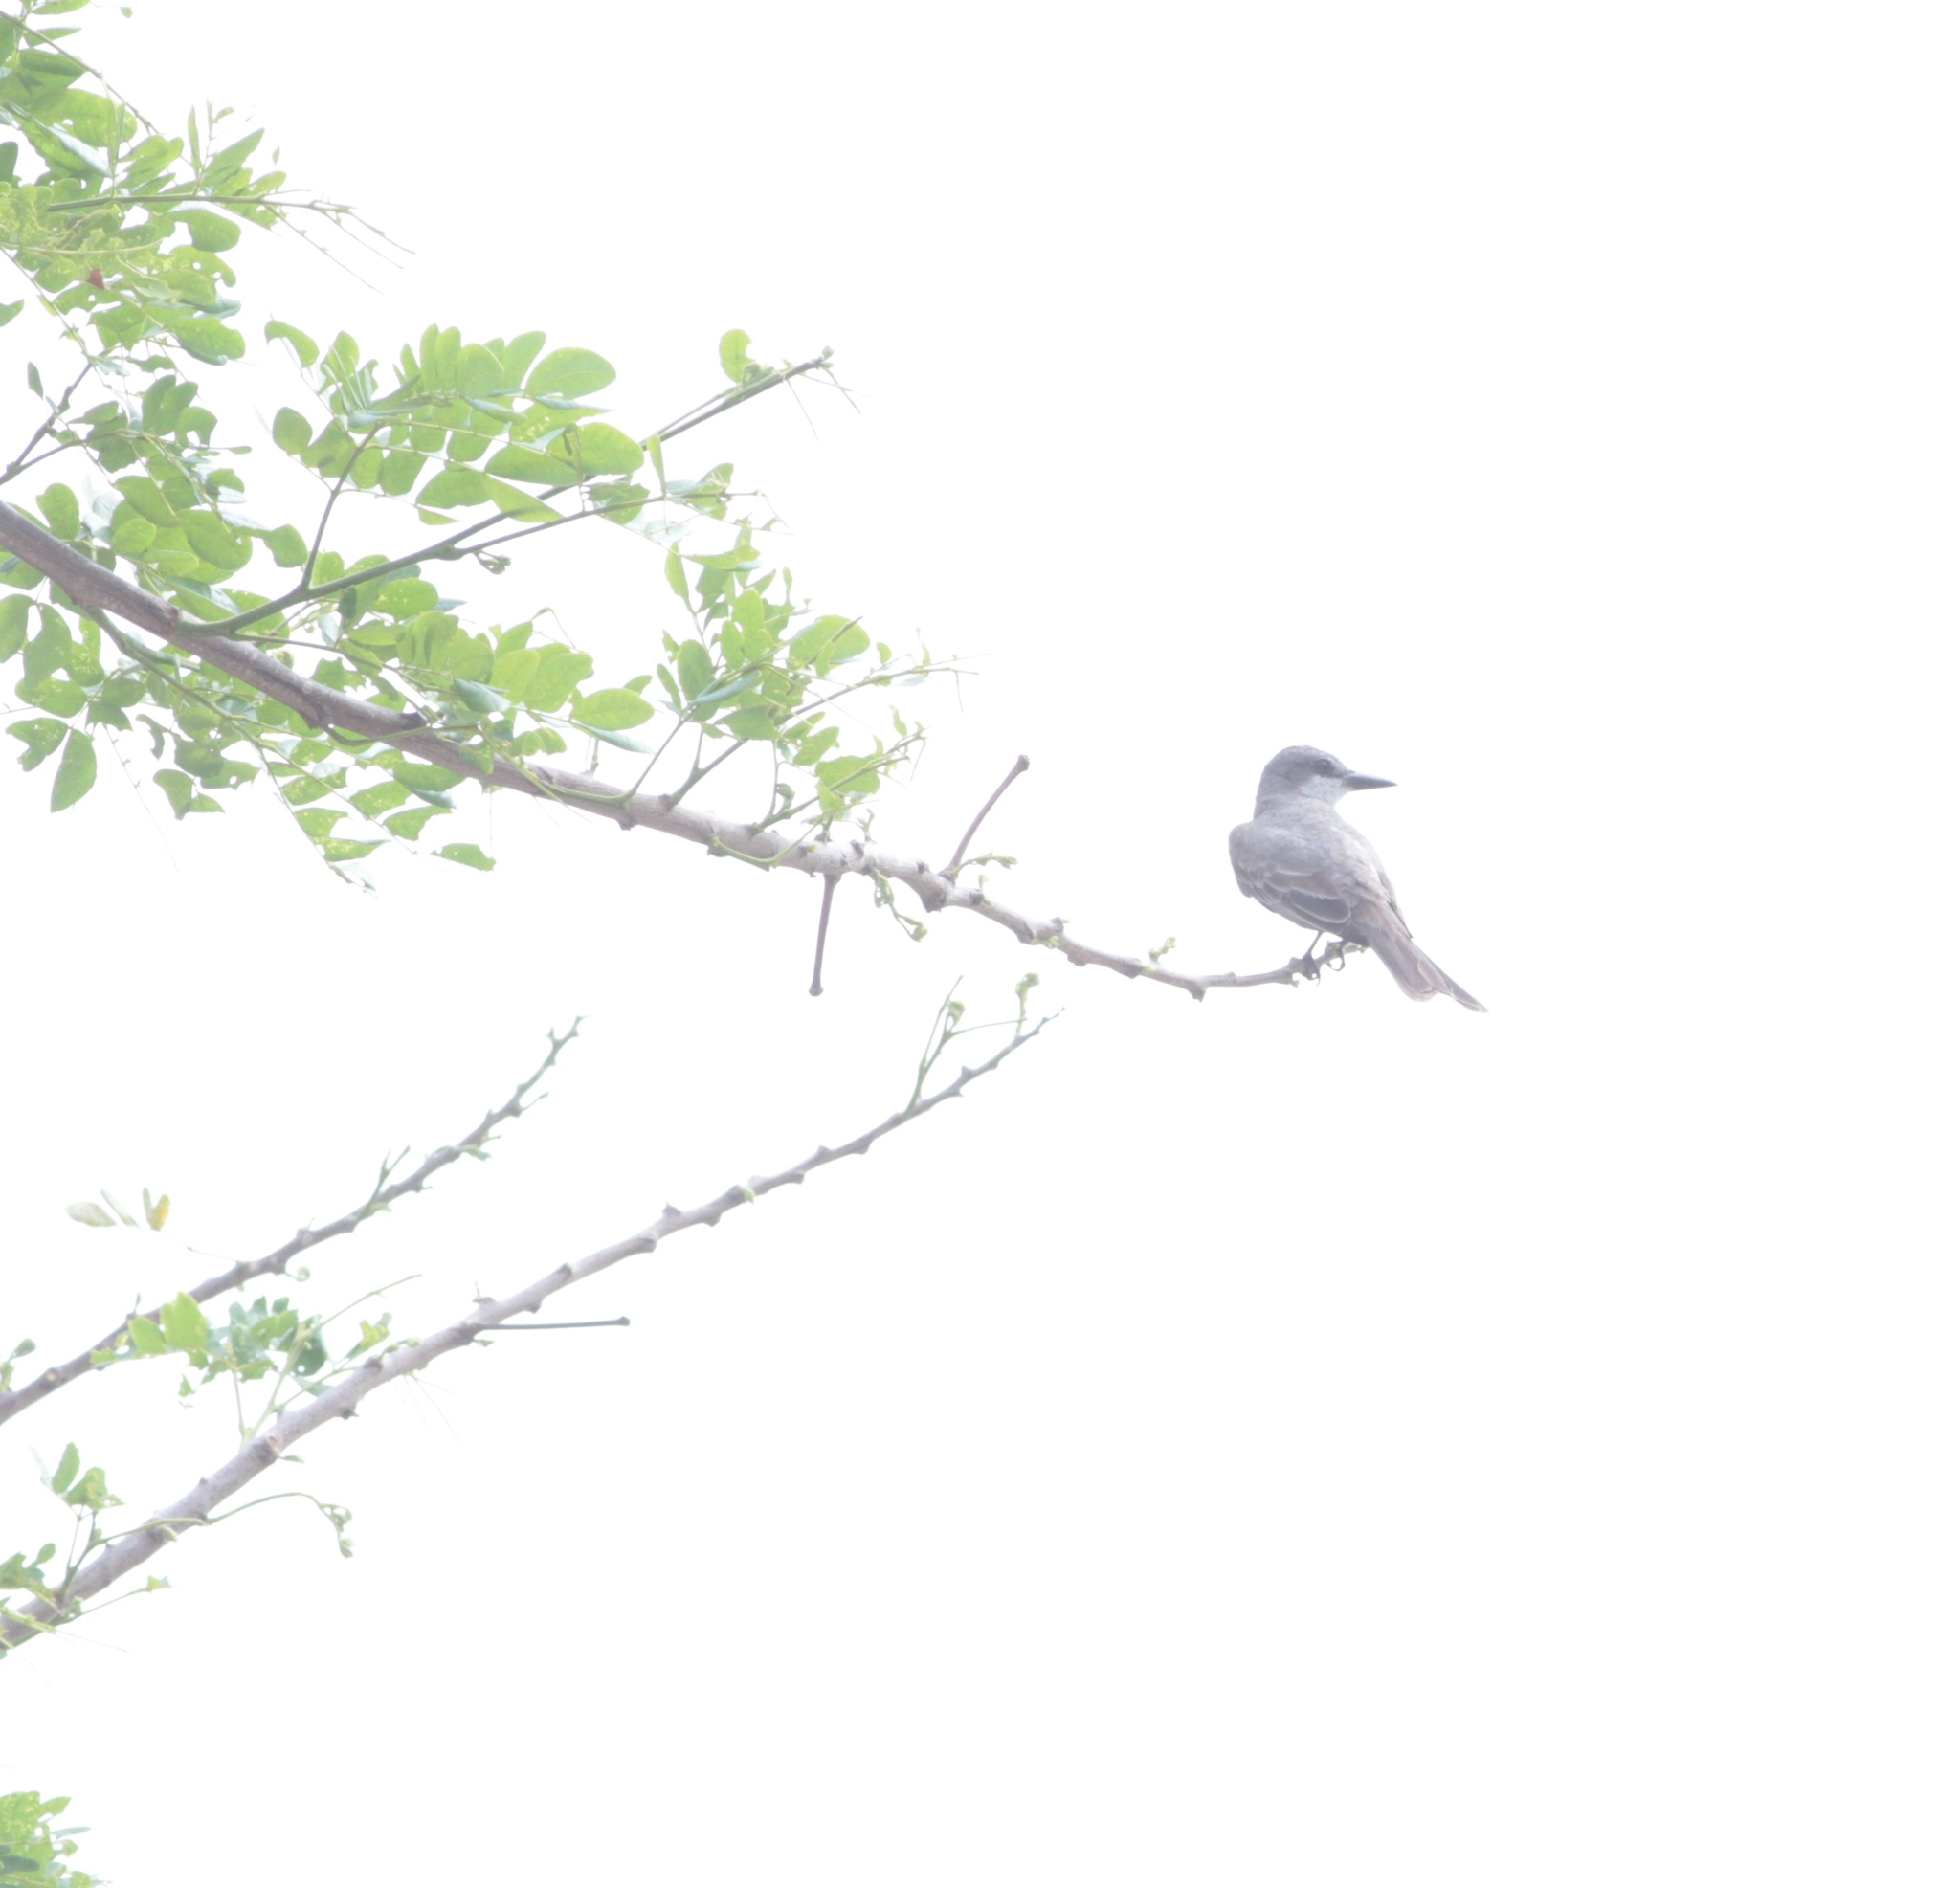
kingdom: Animalia
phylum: Chordata
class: Aves
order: Passeriformes
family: Tyrannidae
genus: Tyrannus
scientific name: Tyrannus dominicensis
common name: Gray kingbird
